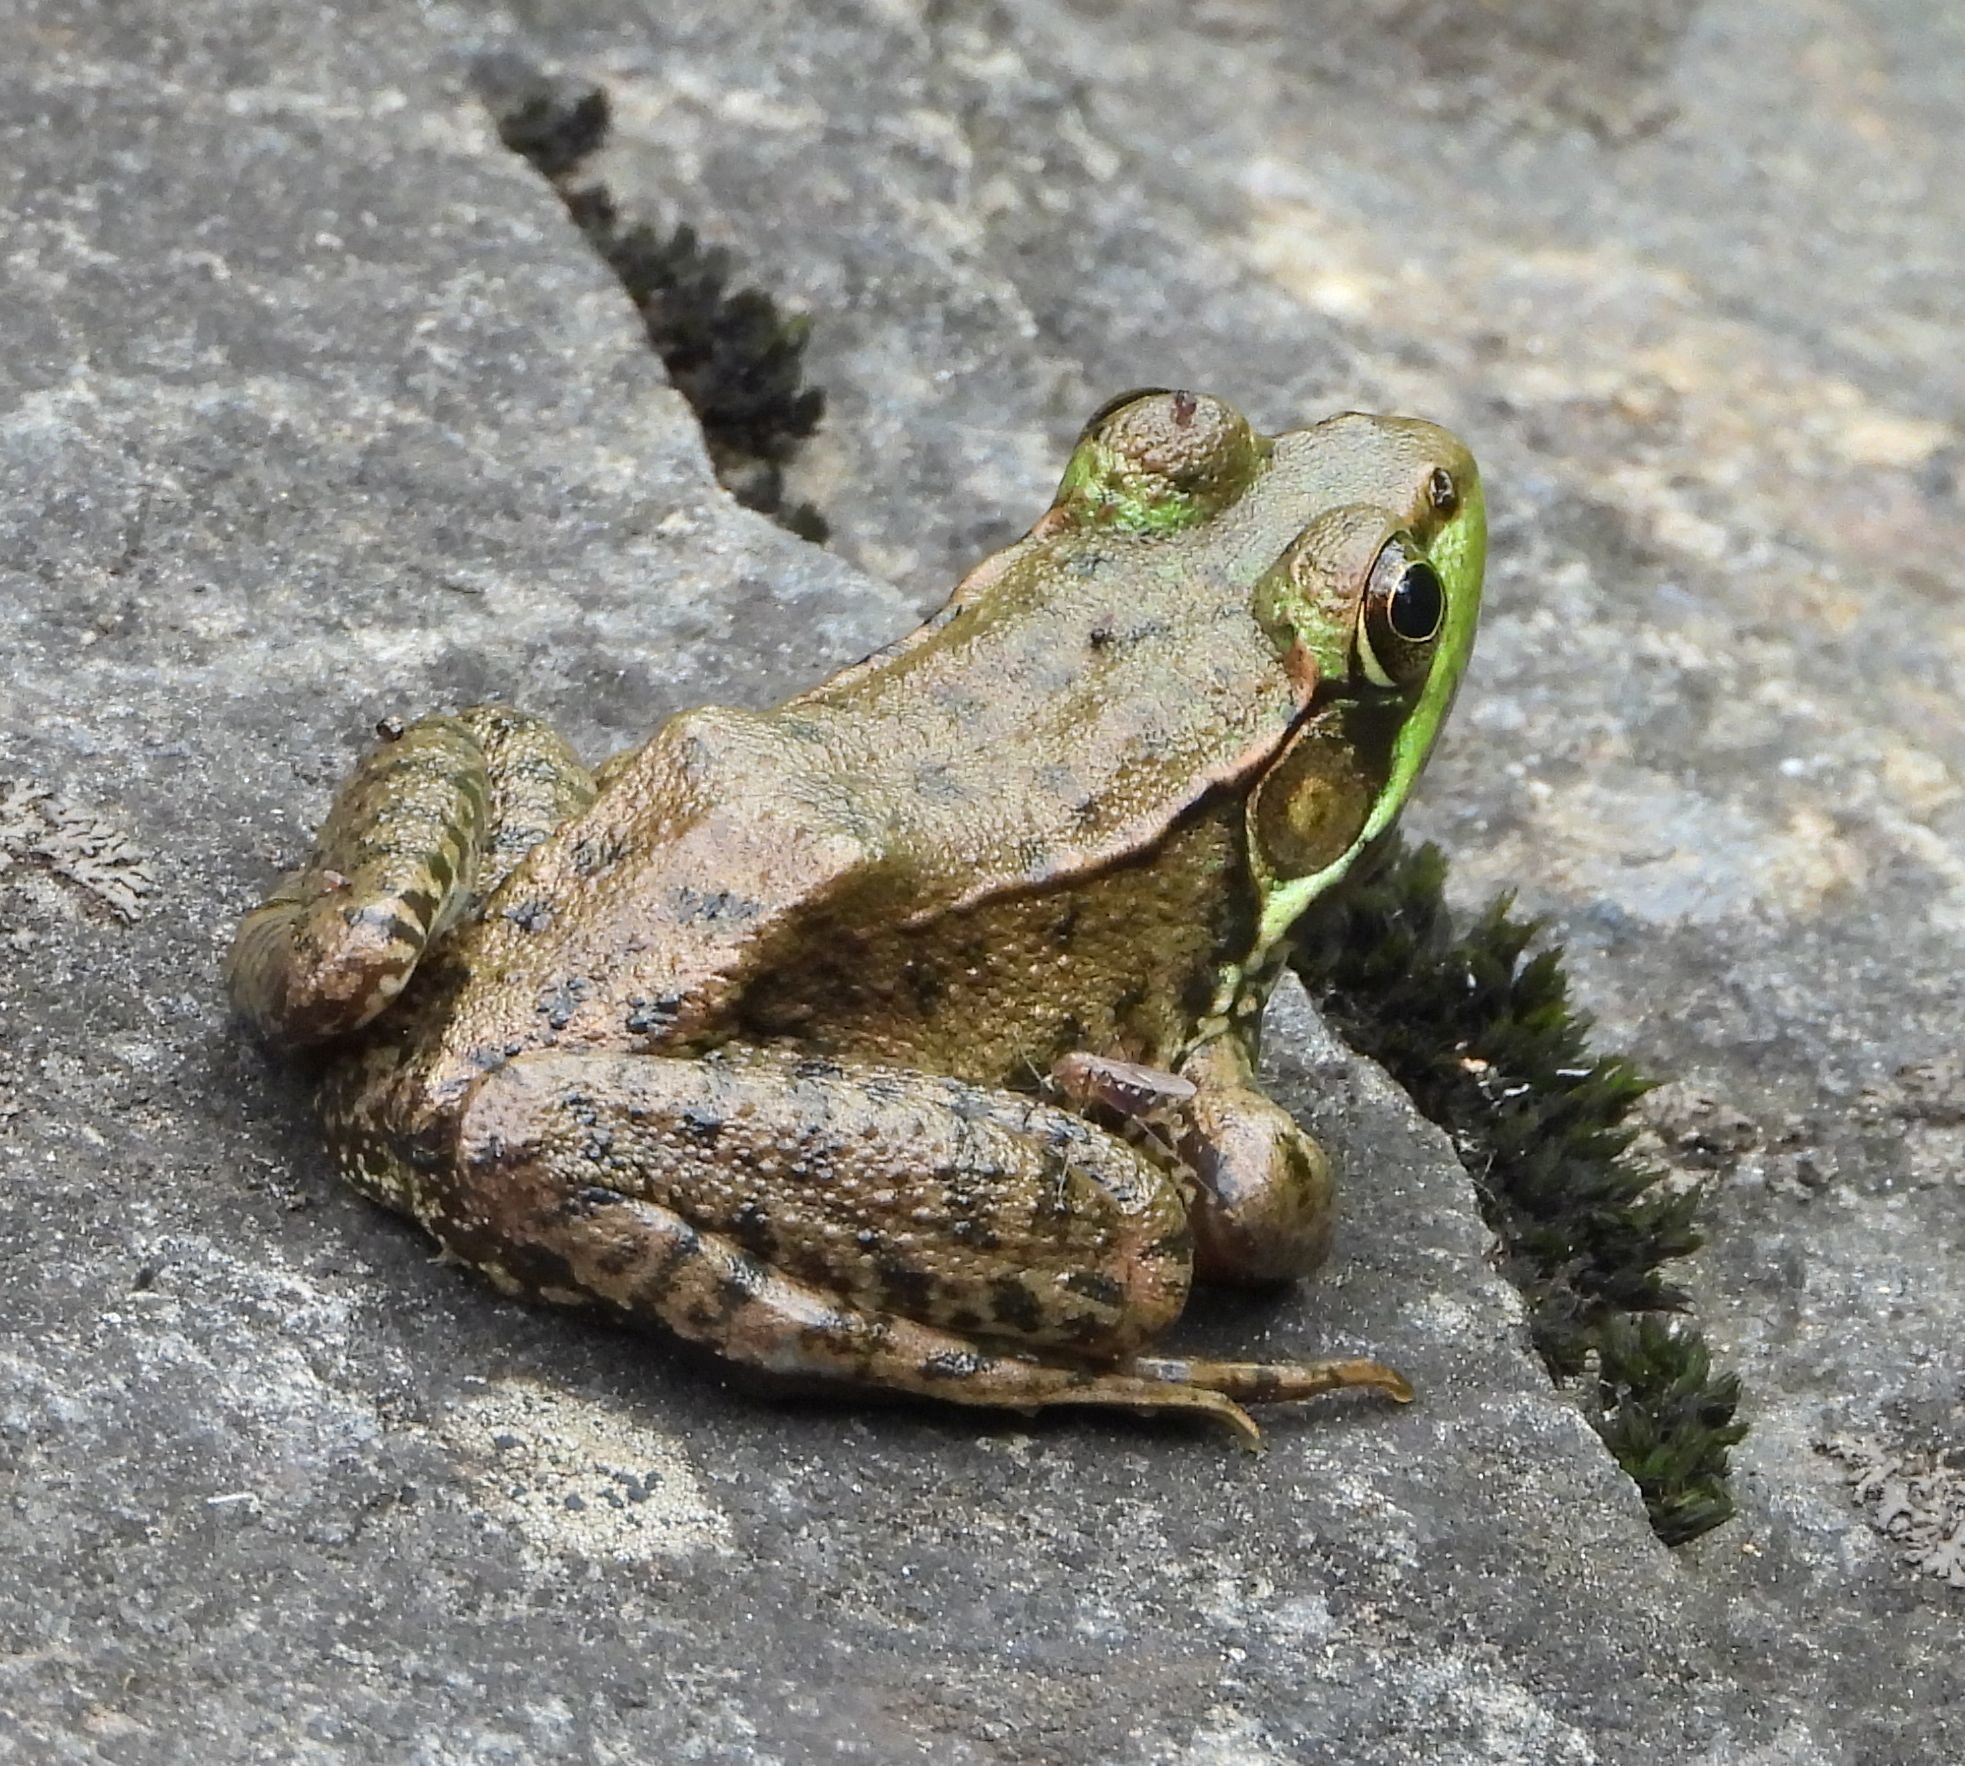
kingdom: Animalia
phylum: Chordata
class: Amphibia
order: Anura
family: Ranidae
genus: Lithobates
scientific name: Lithobates clamitans
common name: Green frog
